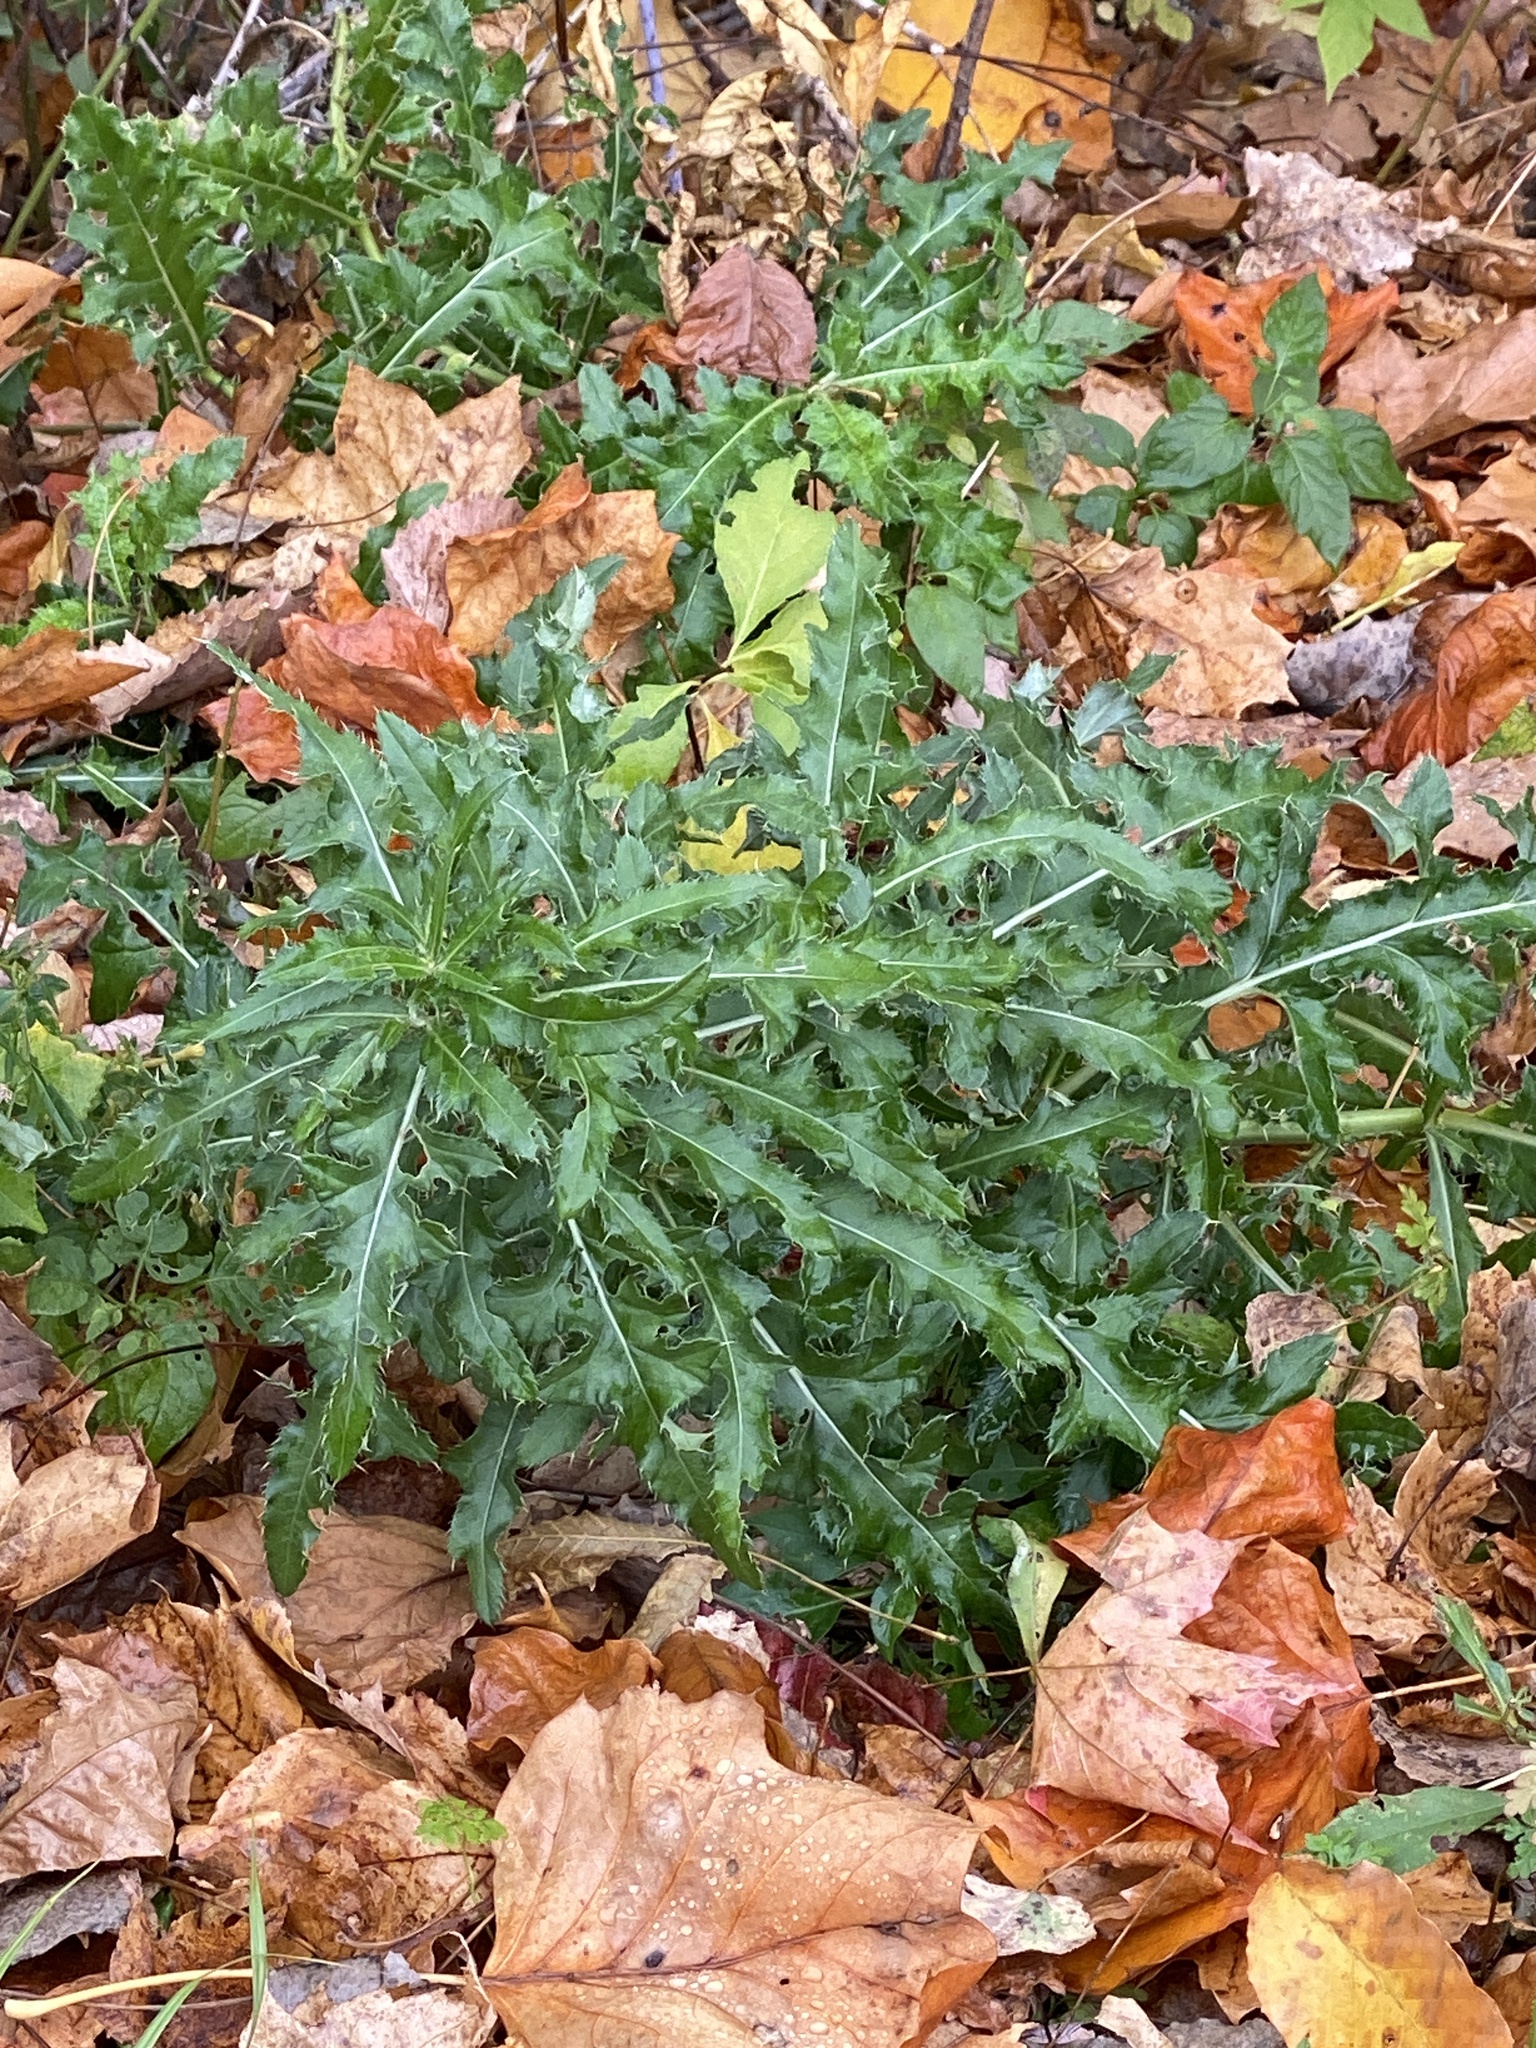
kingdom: Plantae
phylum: Tracheophyta
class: Magnoliopsida
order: Asterales
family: Asteraceae
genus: Cirsium
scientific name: Cirsium arvense
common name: Creeping thistle
